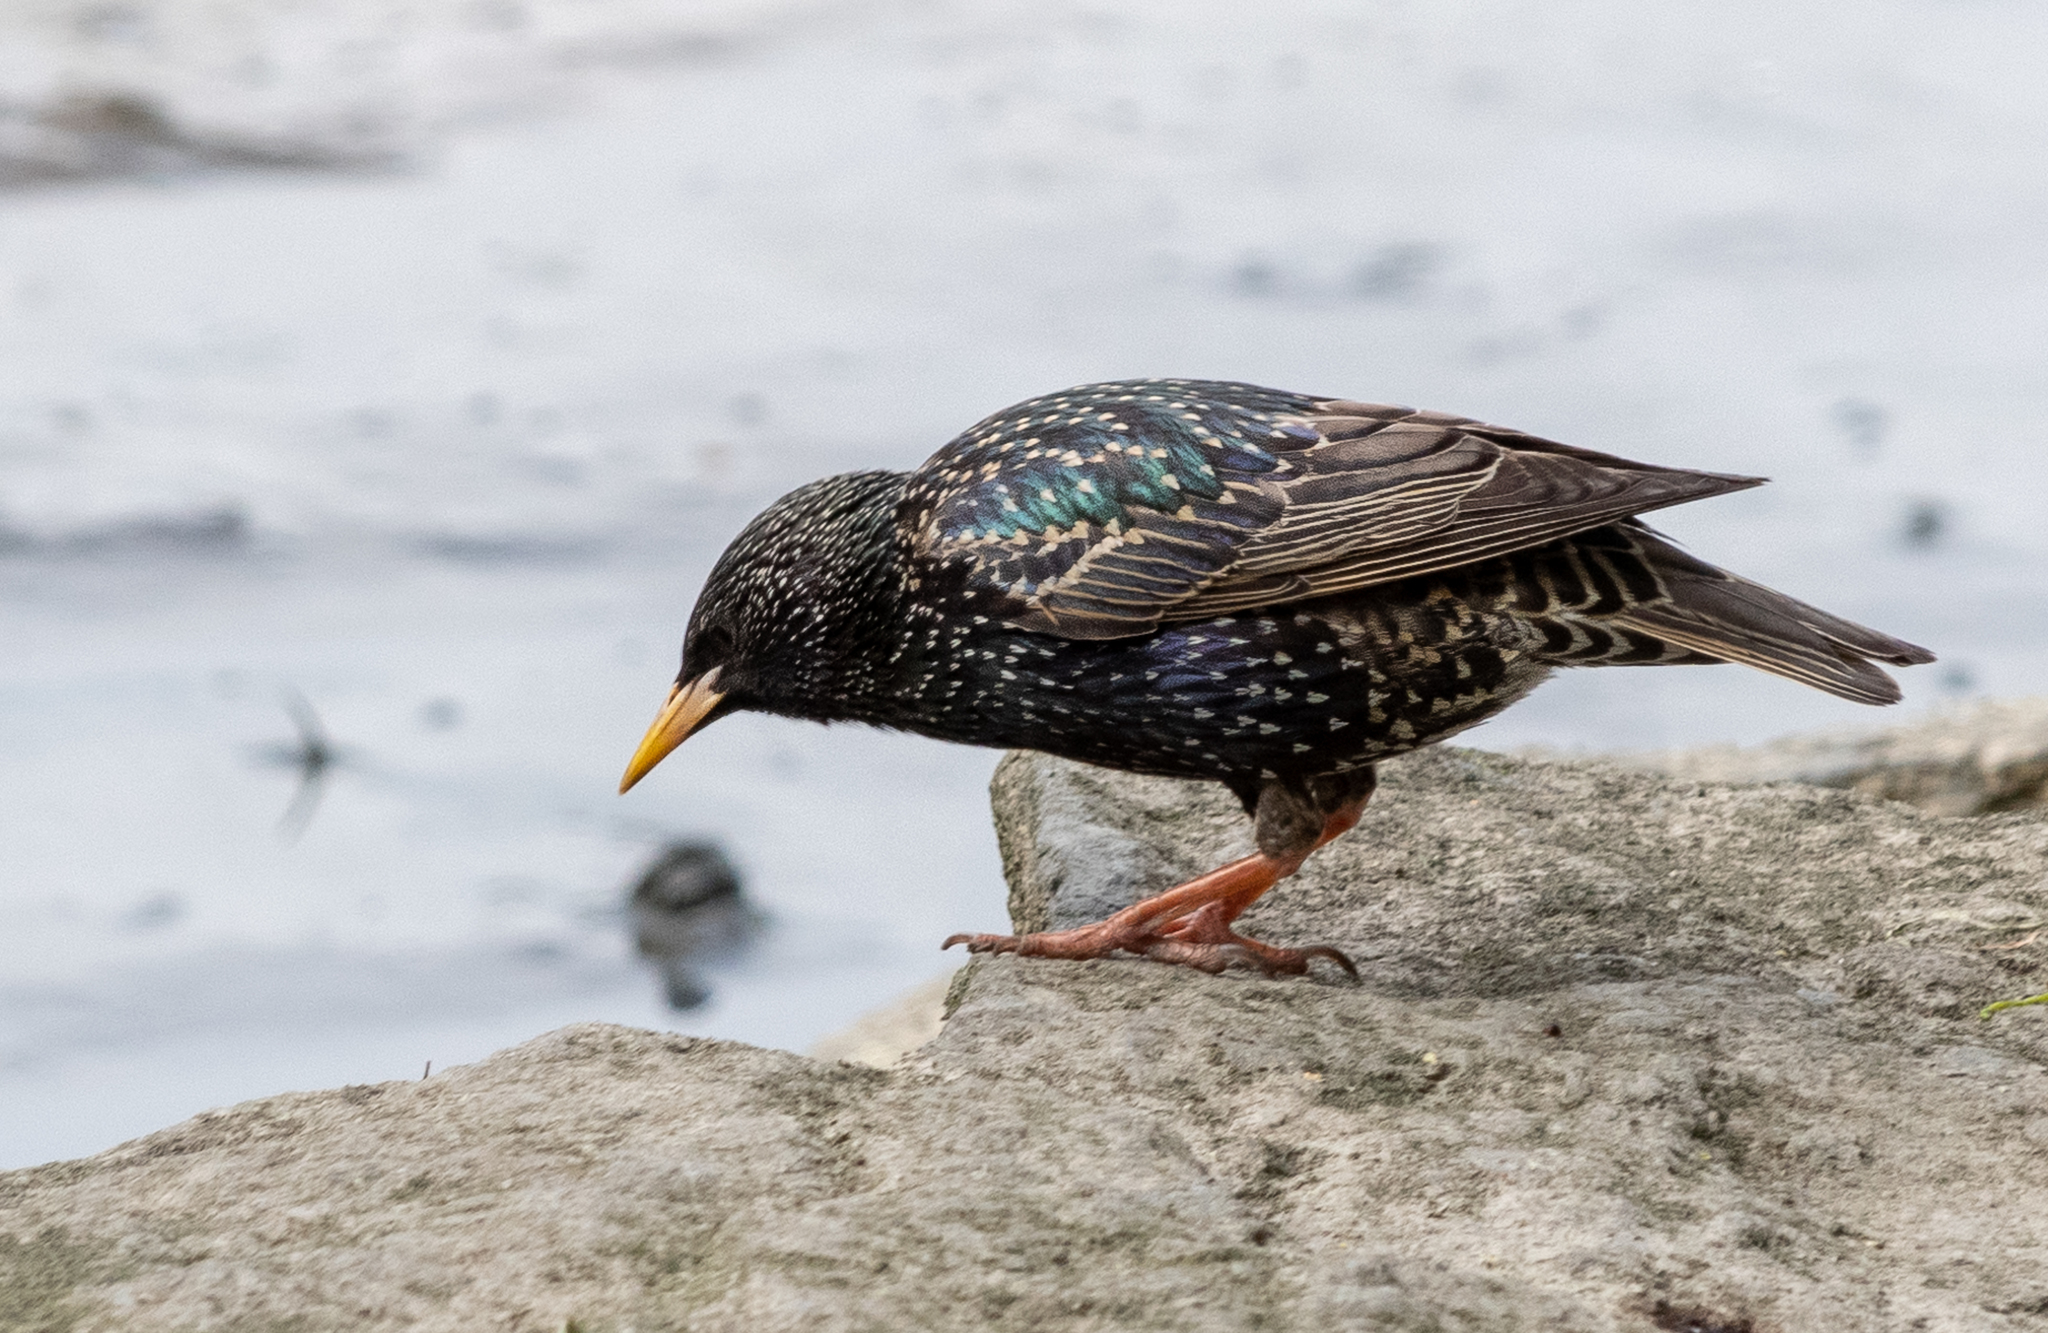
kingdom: Animalia
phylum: Chordata
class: Aves
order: Passeriformes
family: Sturnidae
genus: Sturnus
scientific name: Sturnus vulgaris
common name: Common starling
